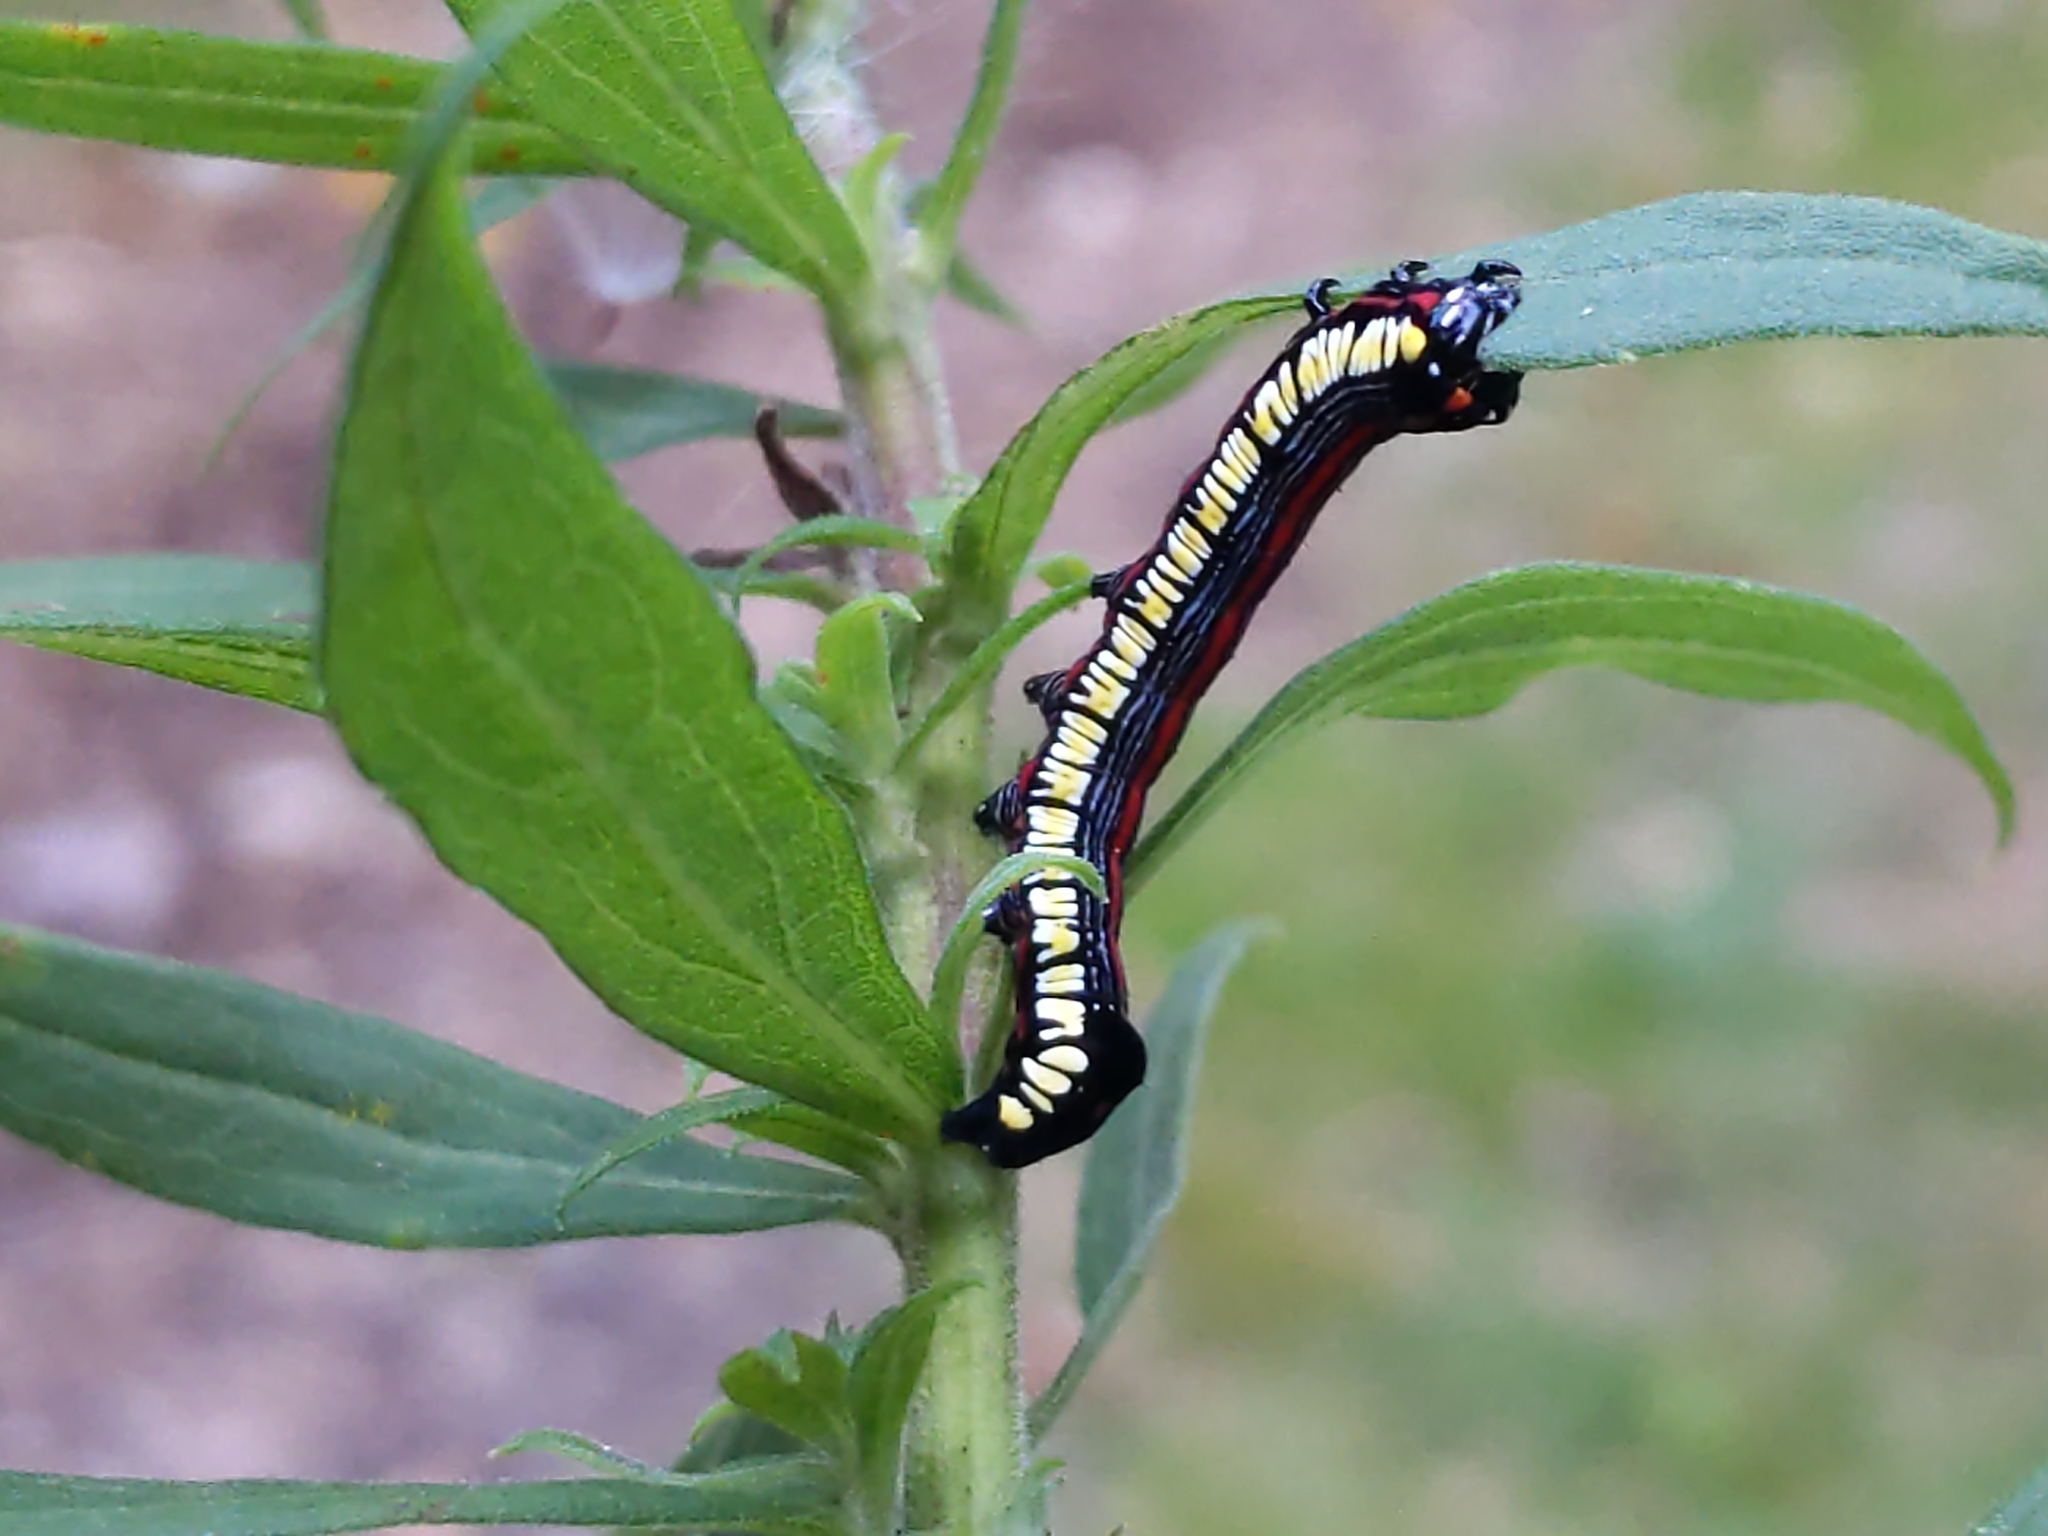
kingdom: Animalia
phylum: Arthropoda
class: Insecta
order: Lepidoptera
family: Noctuidae
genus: Cucullia
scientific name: Cucullia convexipennis
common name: Brown-hooded owlet
